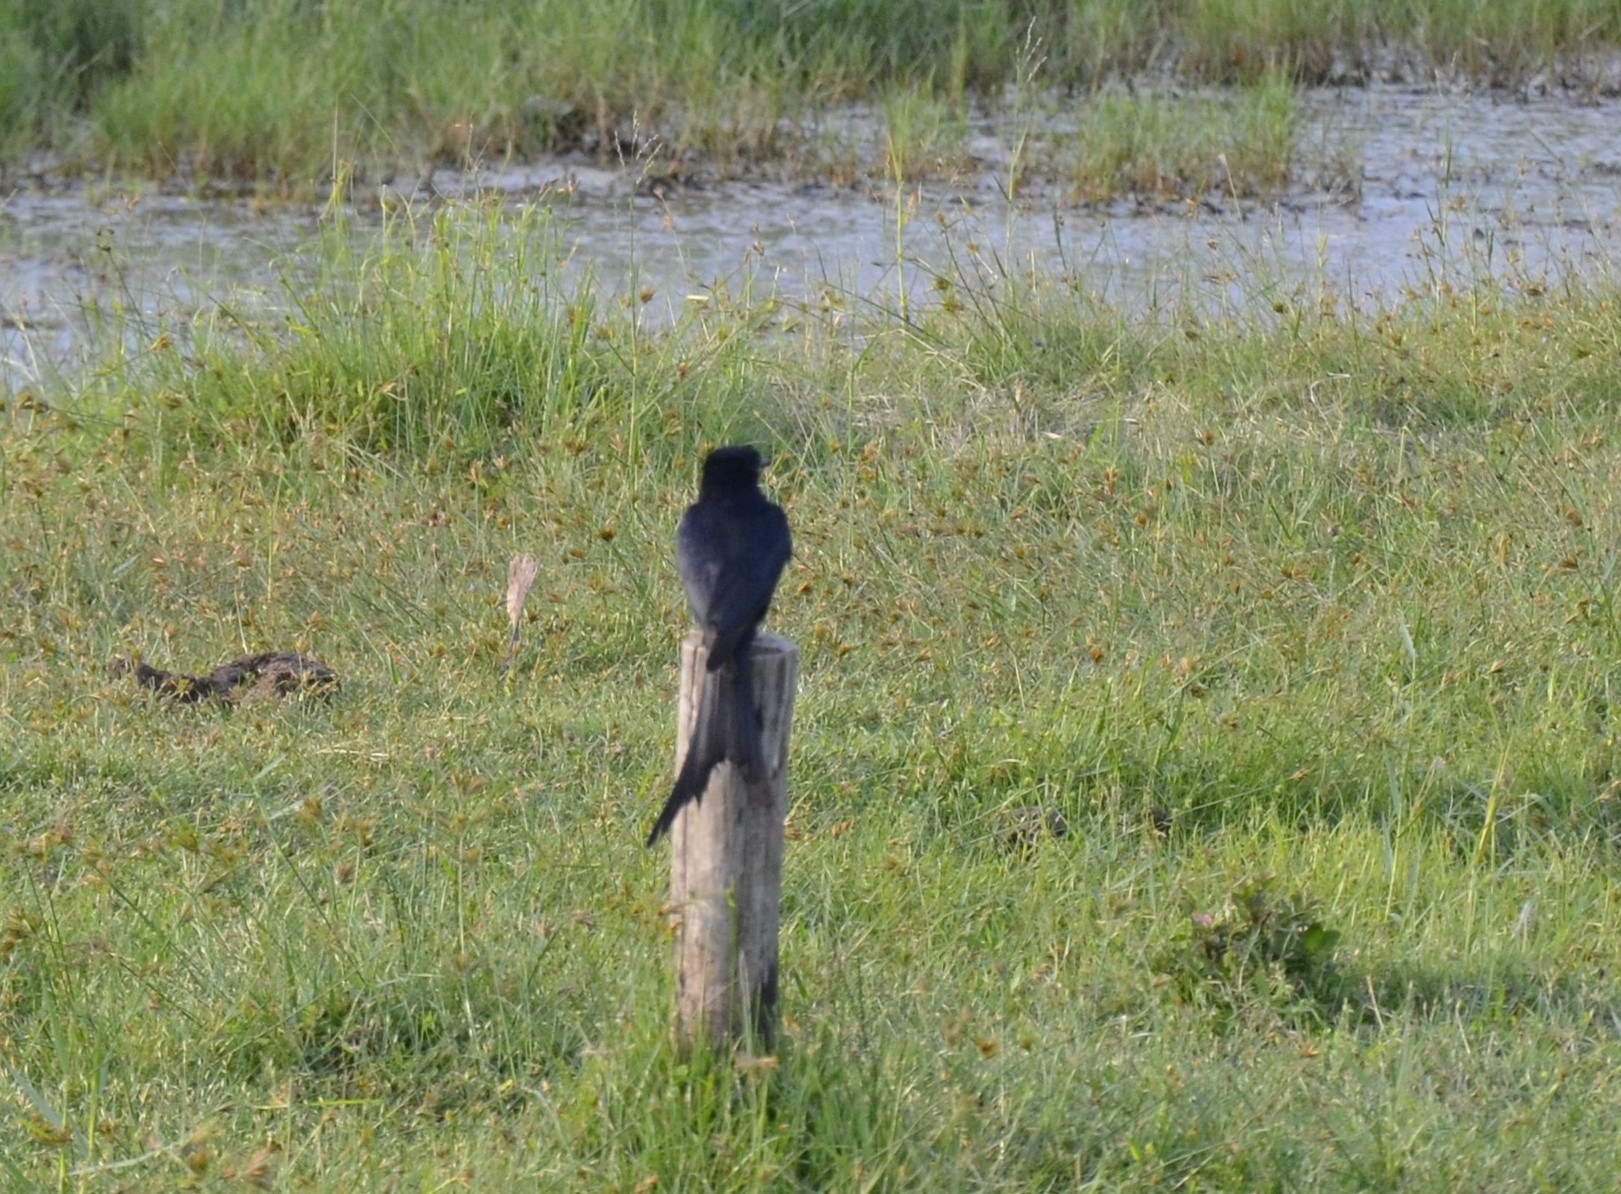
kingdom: Animalia
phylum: Chordata
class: Aves
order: Passeriformes
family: Dicruridae
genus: Dicrurus
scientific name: Dicrurus macrocercus
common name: Black drongo
